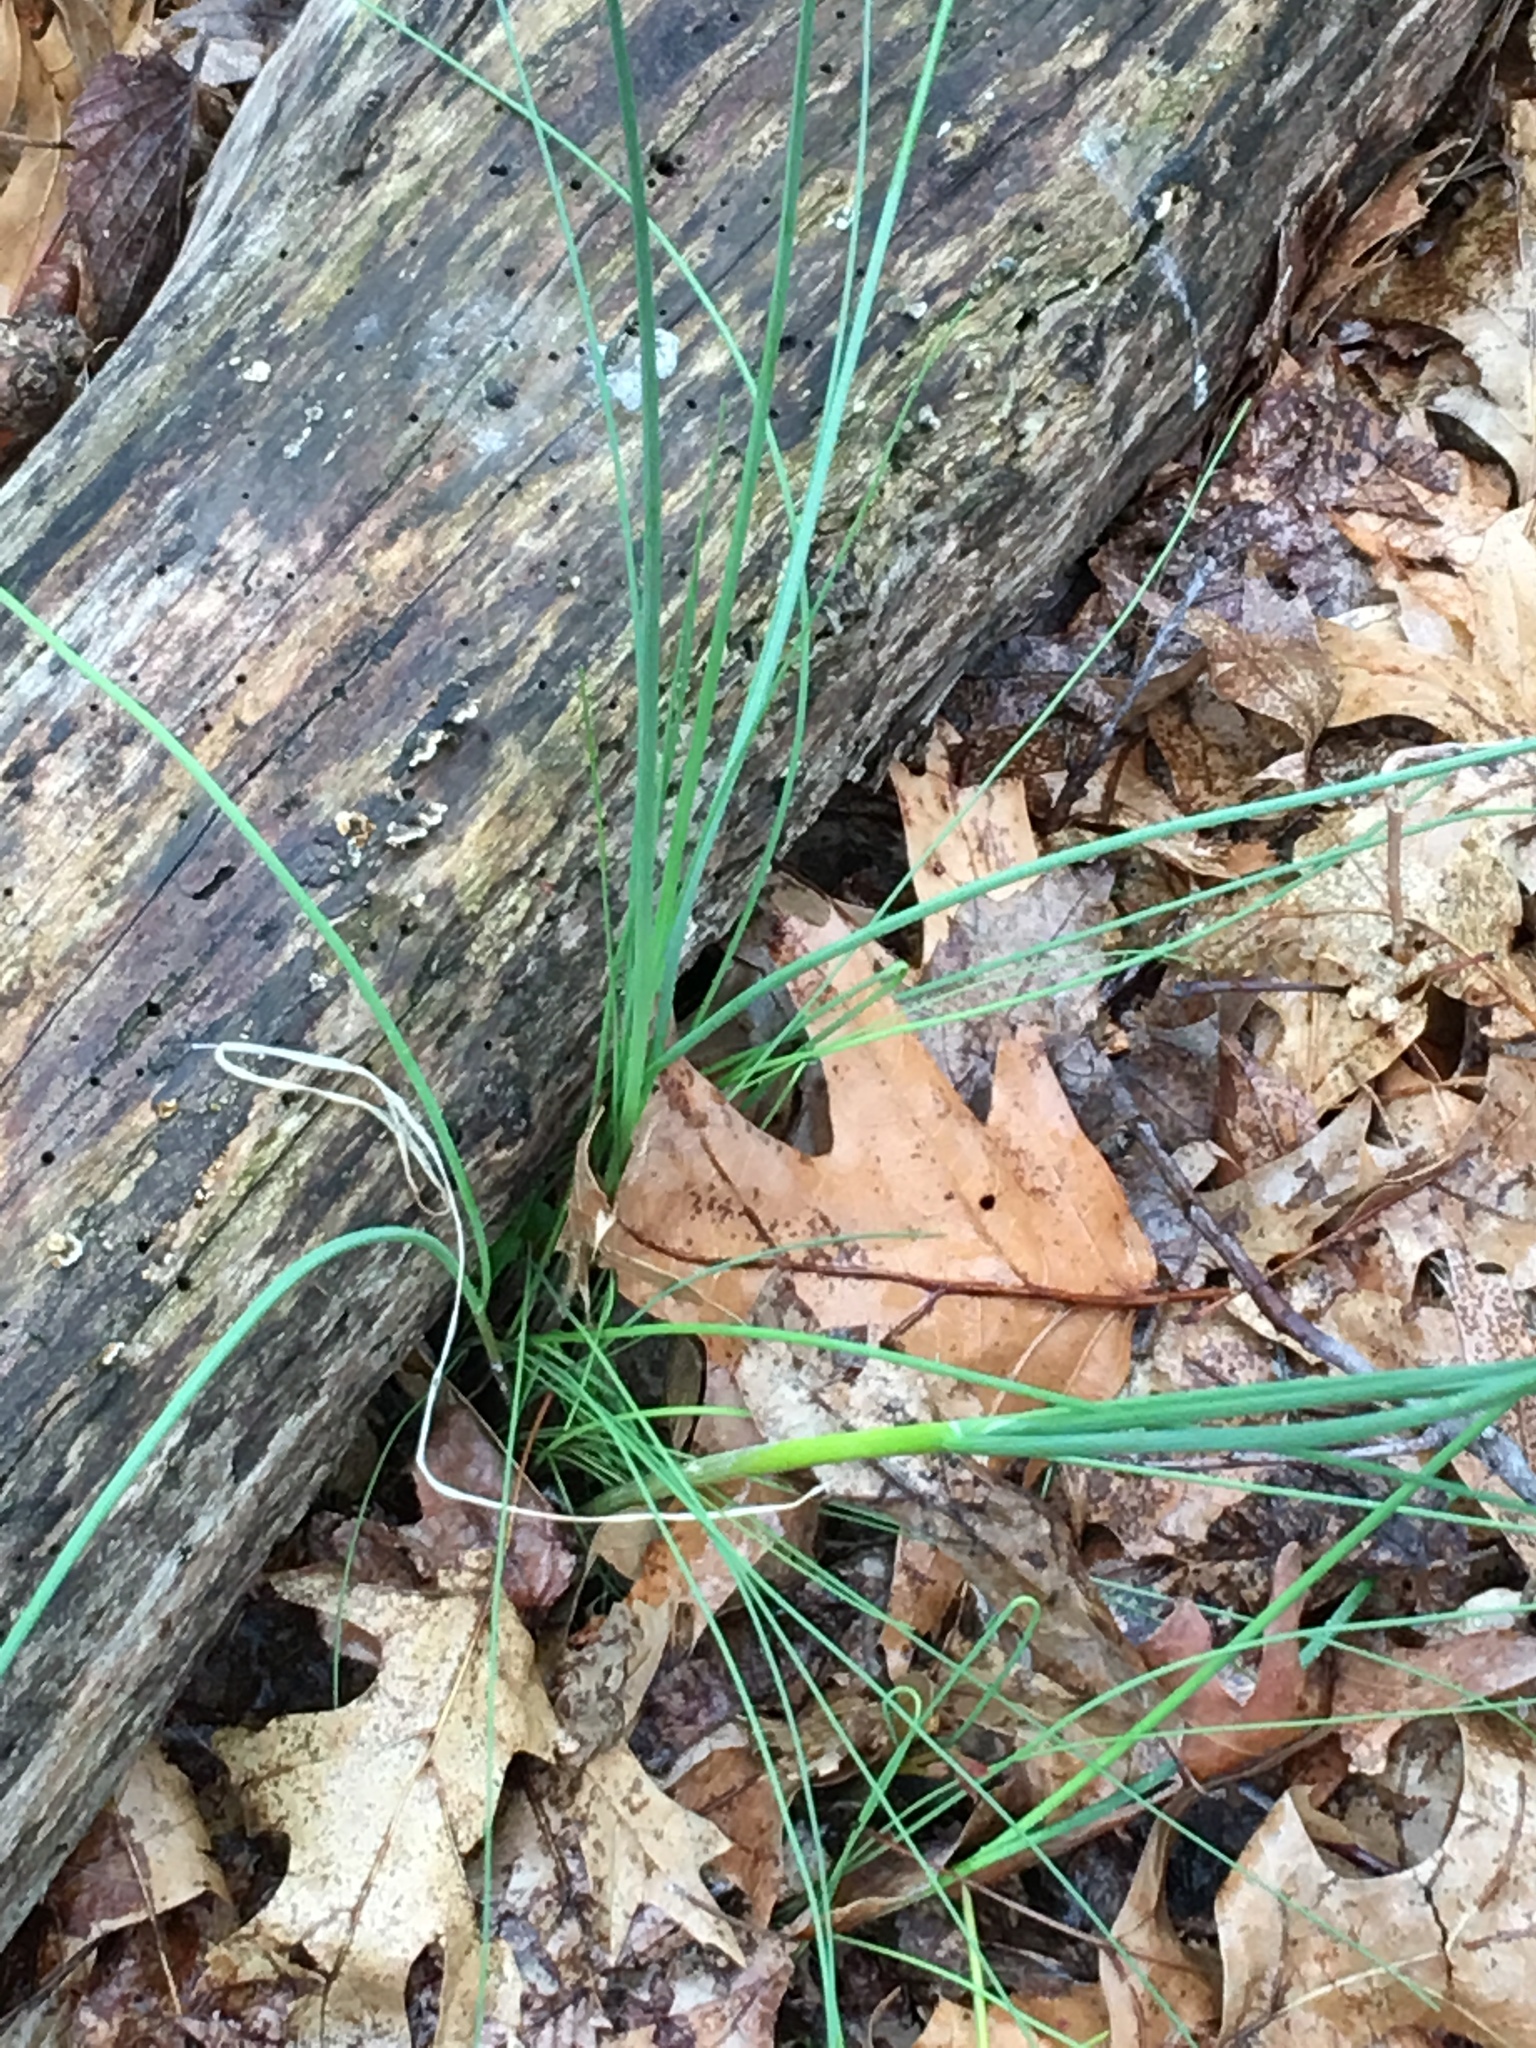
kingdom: Plantae
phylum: Tracheophyta
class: Liliopsida
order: Asparagales
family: Amaryllidaceae
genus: Allium
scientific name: Allium vineale
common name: Crow garlic
